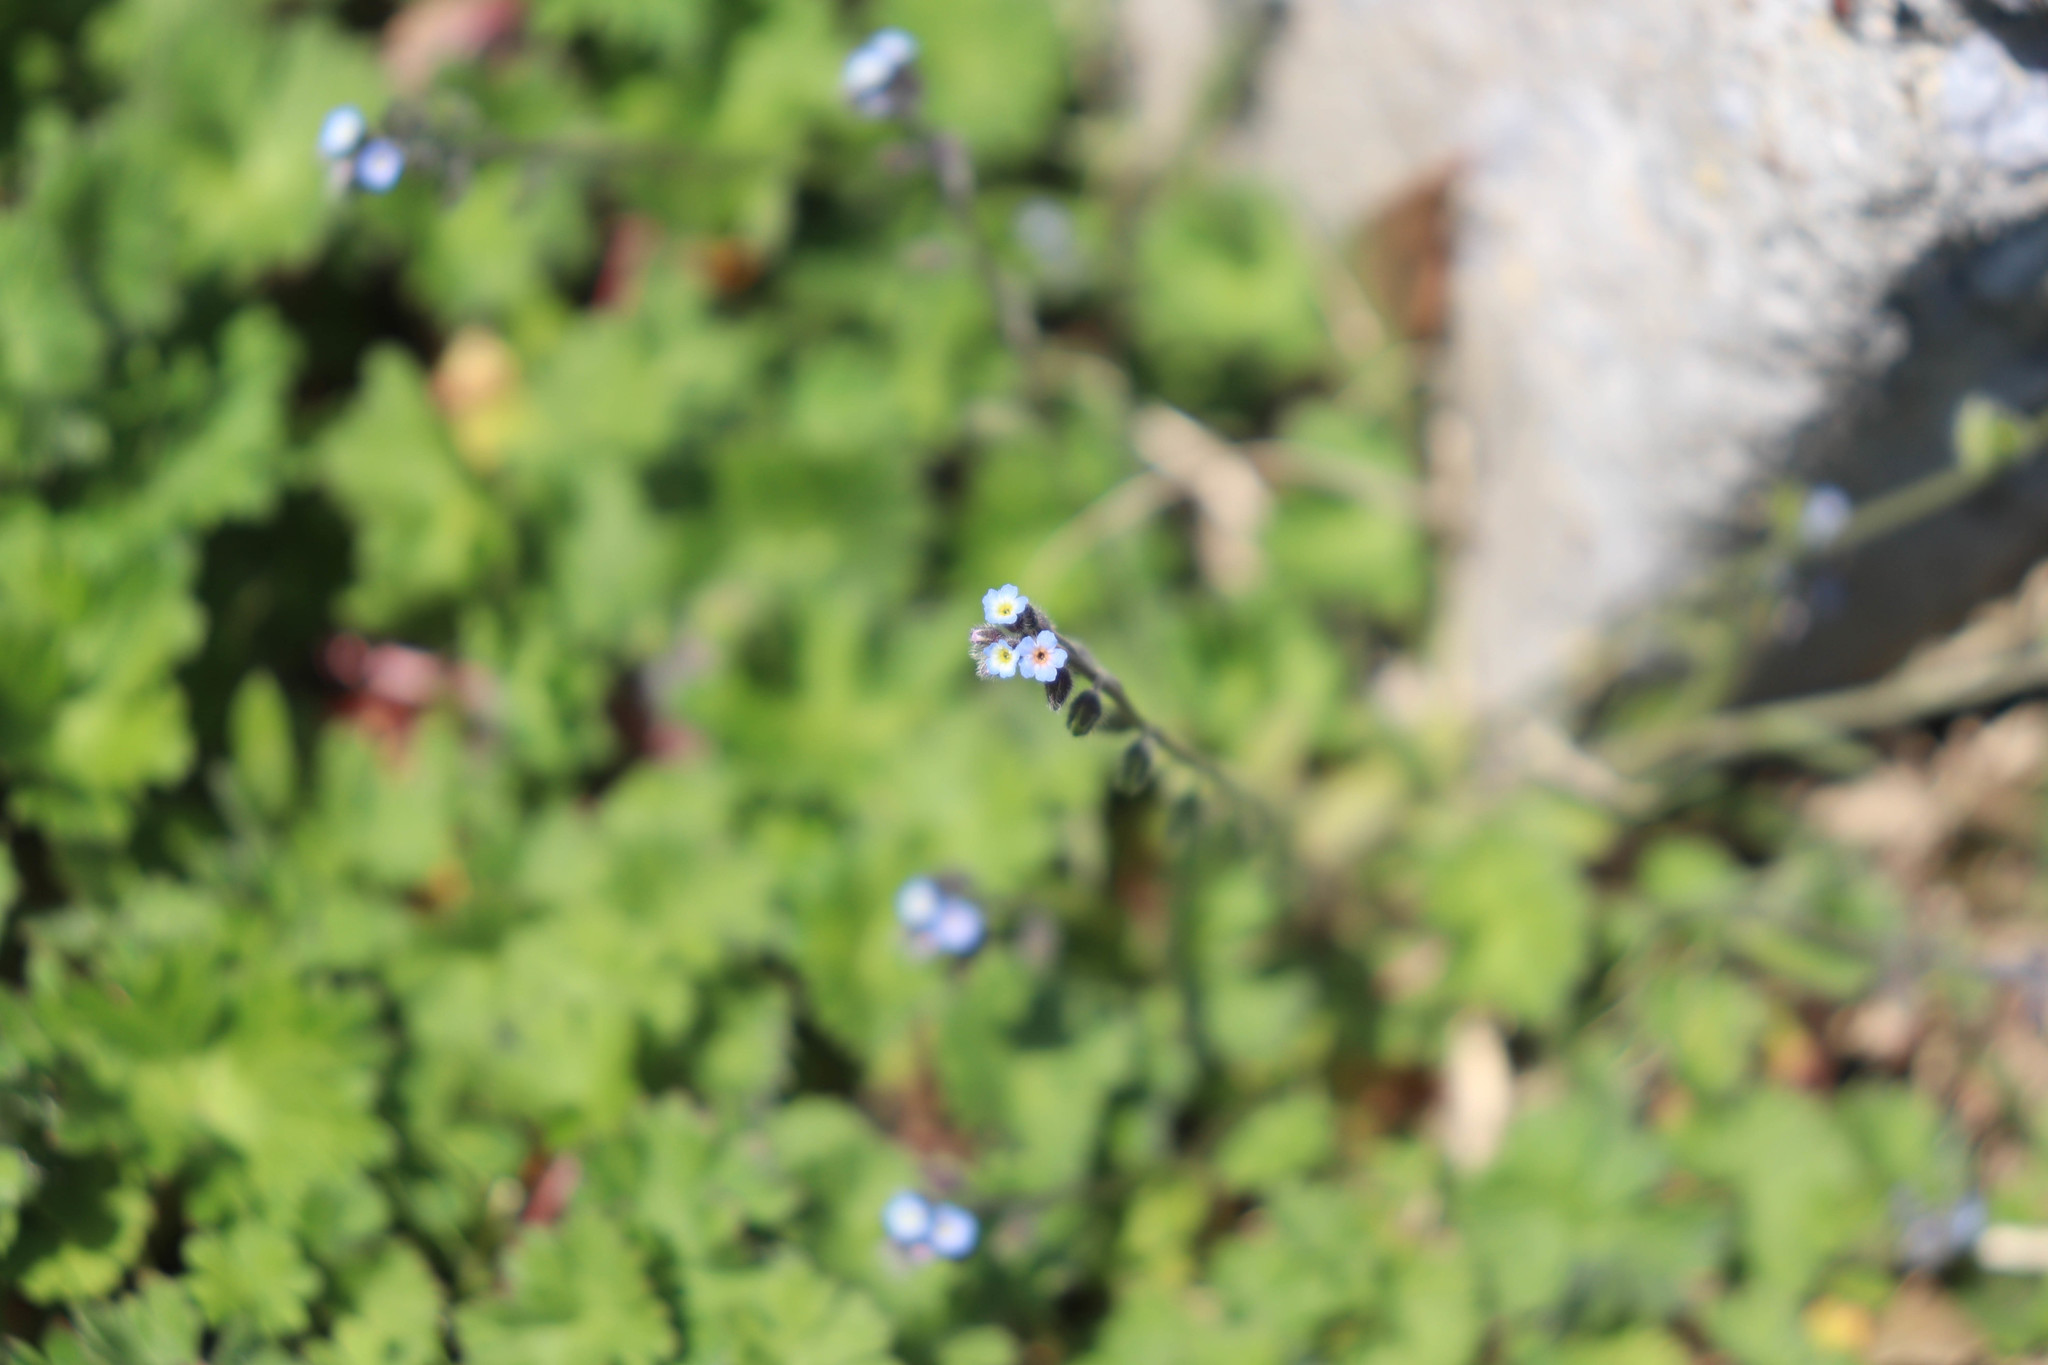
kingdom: Plantae
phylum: Tracheophyta
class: Magnoliopsida
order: Boraginales
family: Boraginaceae
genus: Myosotis
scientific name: Myosotis ramosissima
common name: Early forget-me-not
